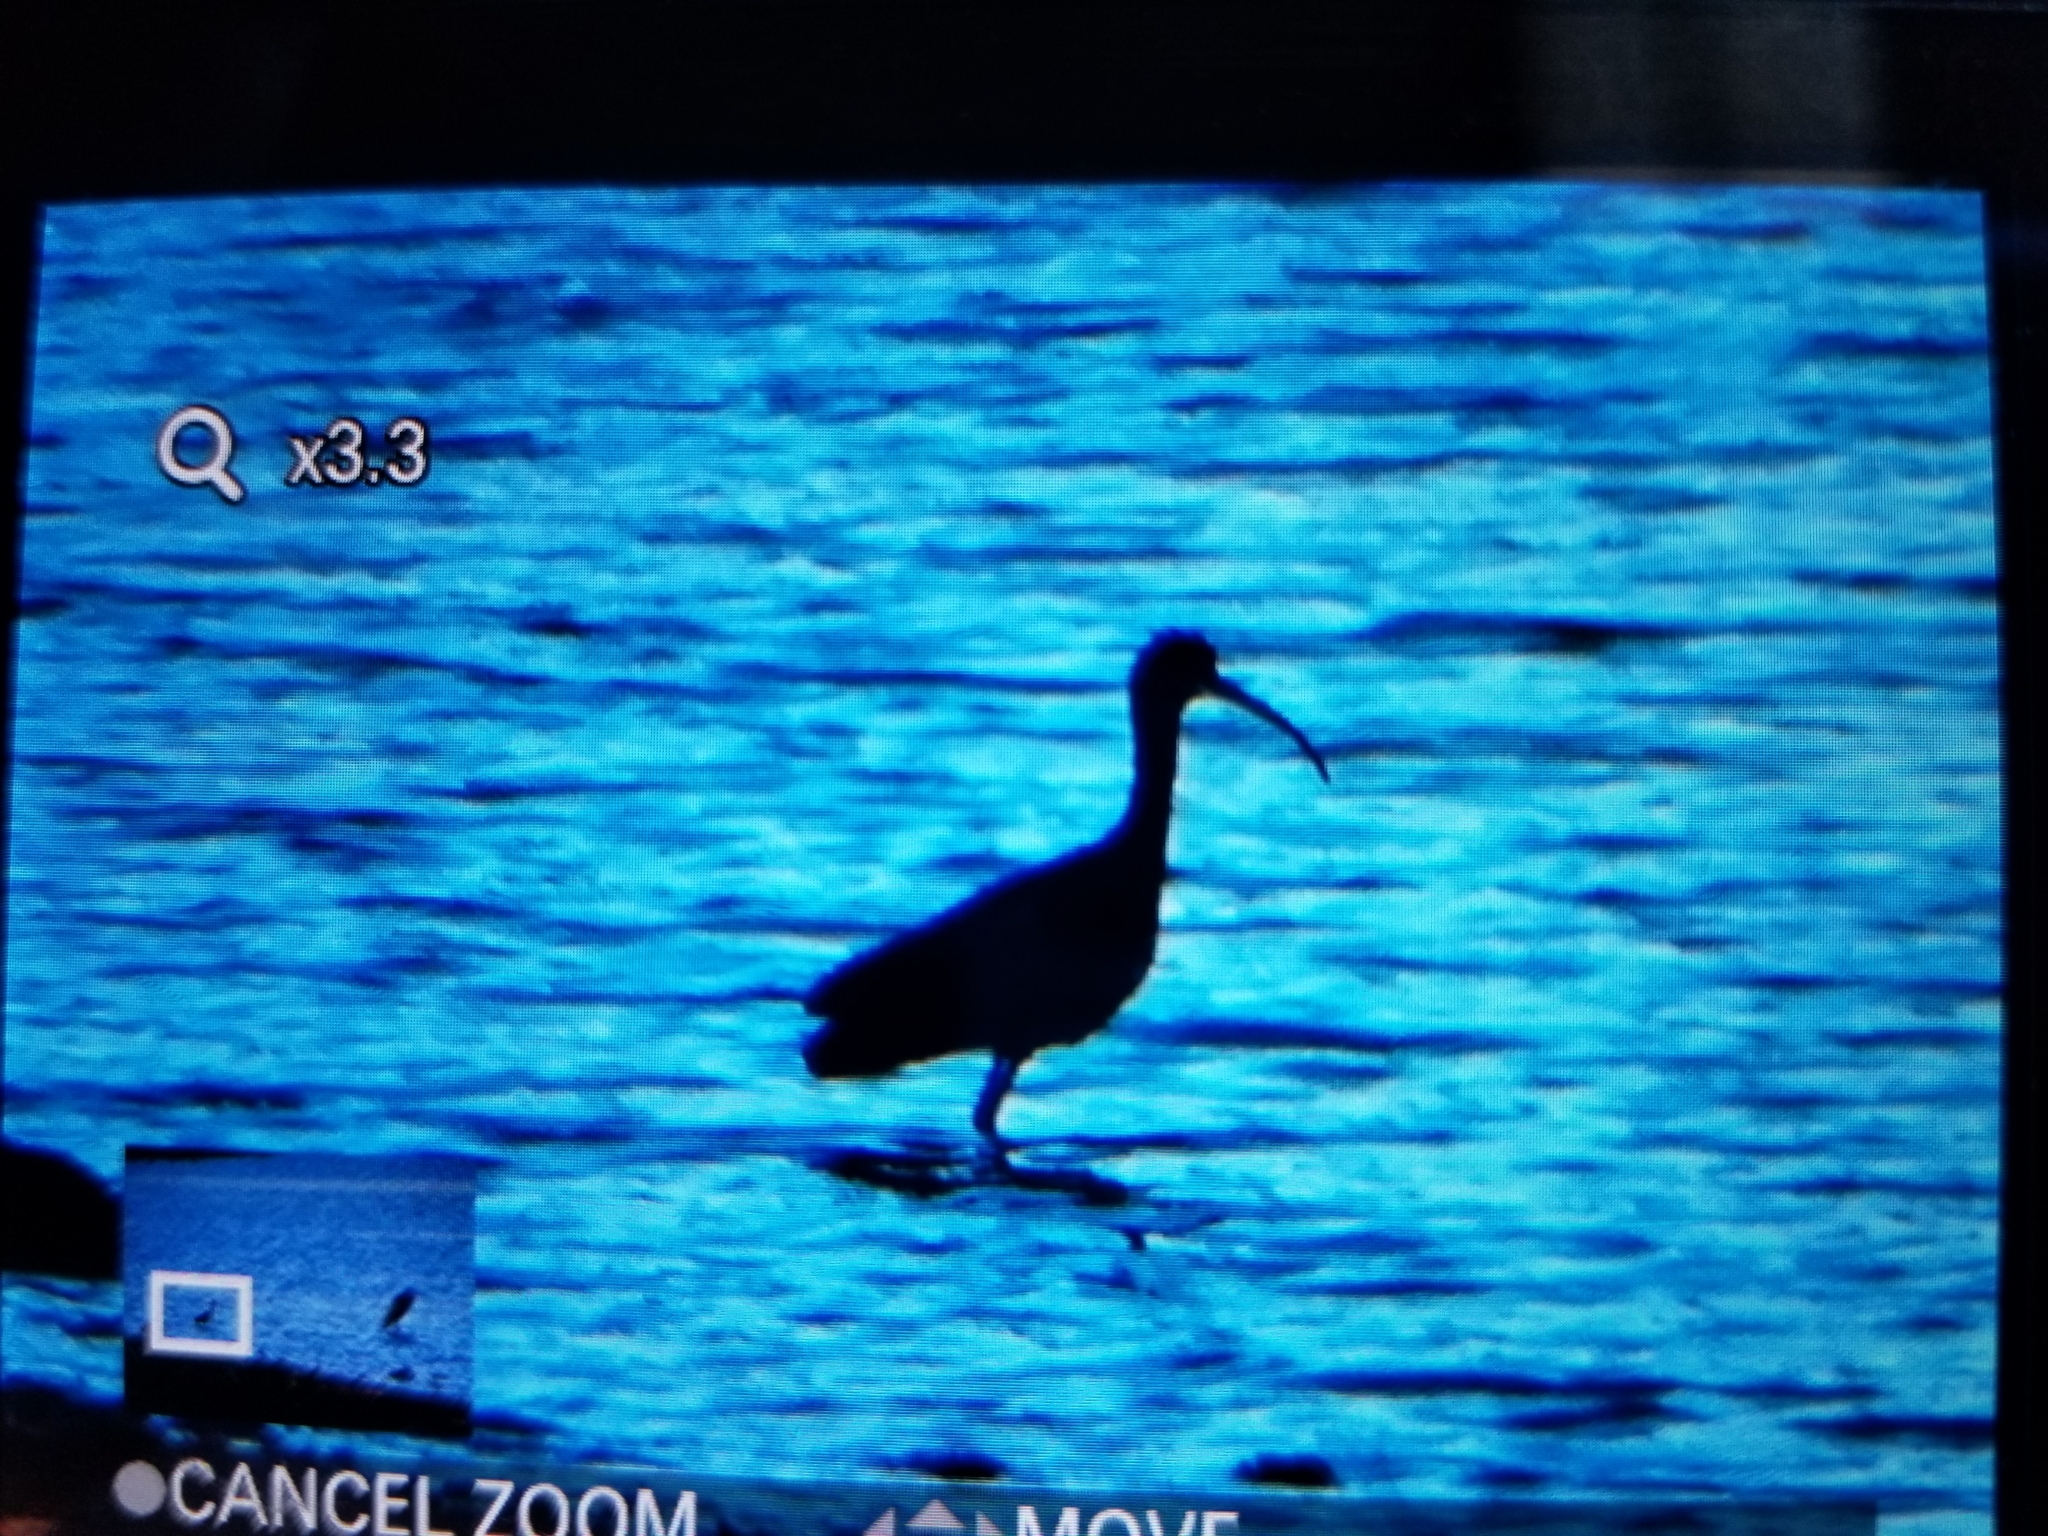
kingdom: Animalia
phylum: Chordata
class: Aves
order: Pelecaniformes
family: Threskiornithidae
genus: Plegadis
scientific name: Plegadis chihi
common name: White-faced ibis
